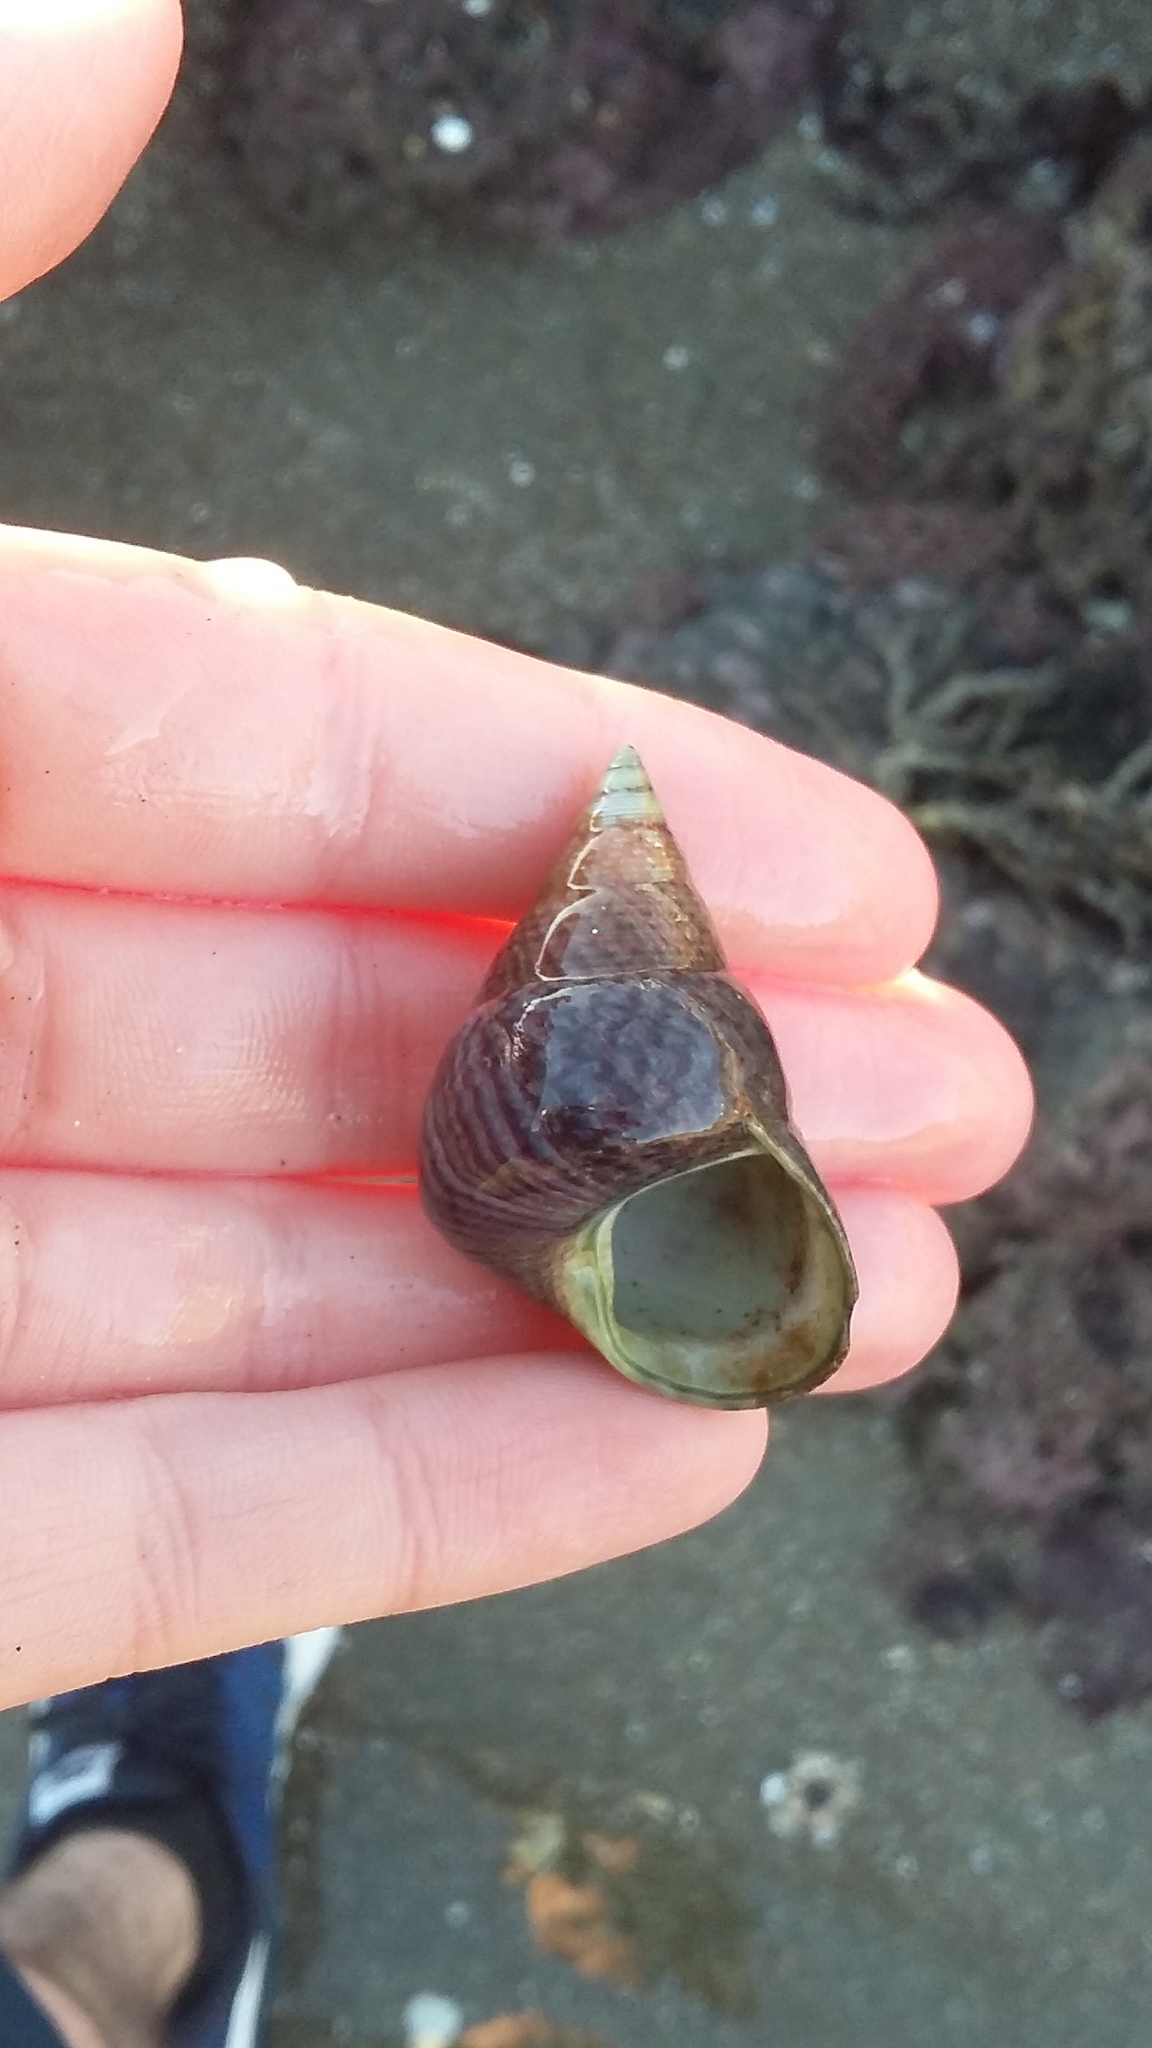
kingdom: Animalia
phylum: Mollusca
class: Gastropoda
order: Trochida
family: Trochidae
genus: Cantharidus
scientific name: Cantharidus opalus
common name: Opal jewel topsnail
